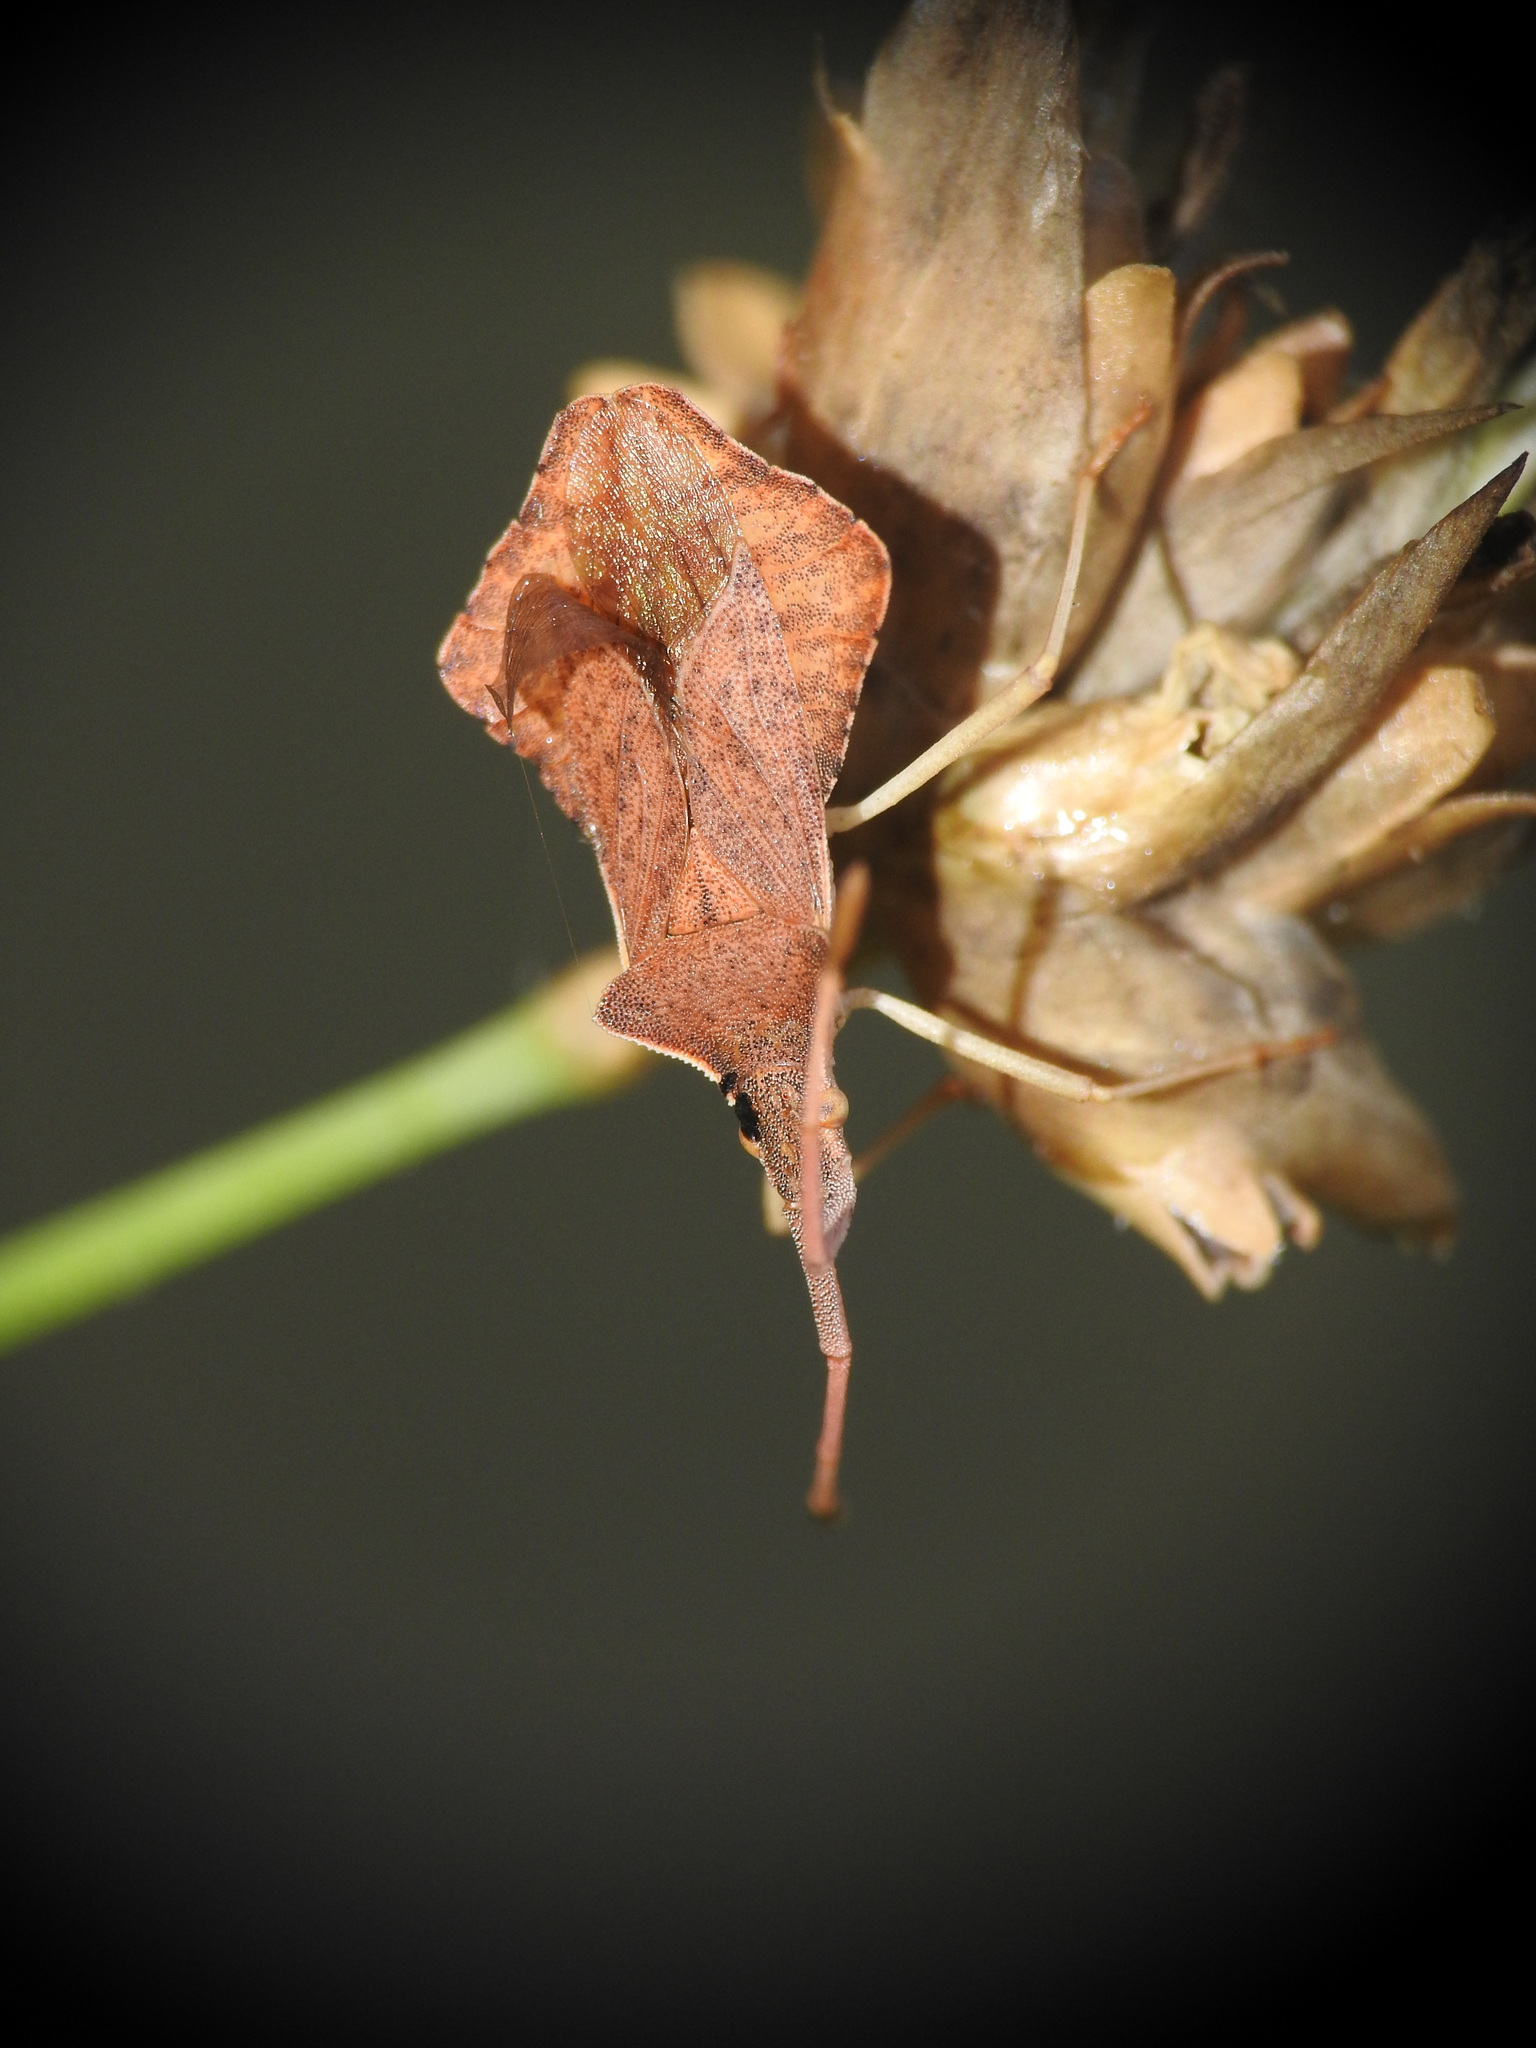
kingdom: Animalia
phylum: Arthropoda
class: Insecta
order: Hemiptera
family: Coreidae
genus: Syromastus
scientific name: Syromastus rhombeus
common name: Rhombic leatherbug
